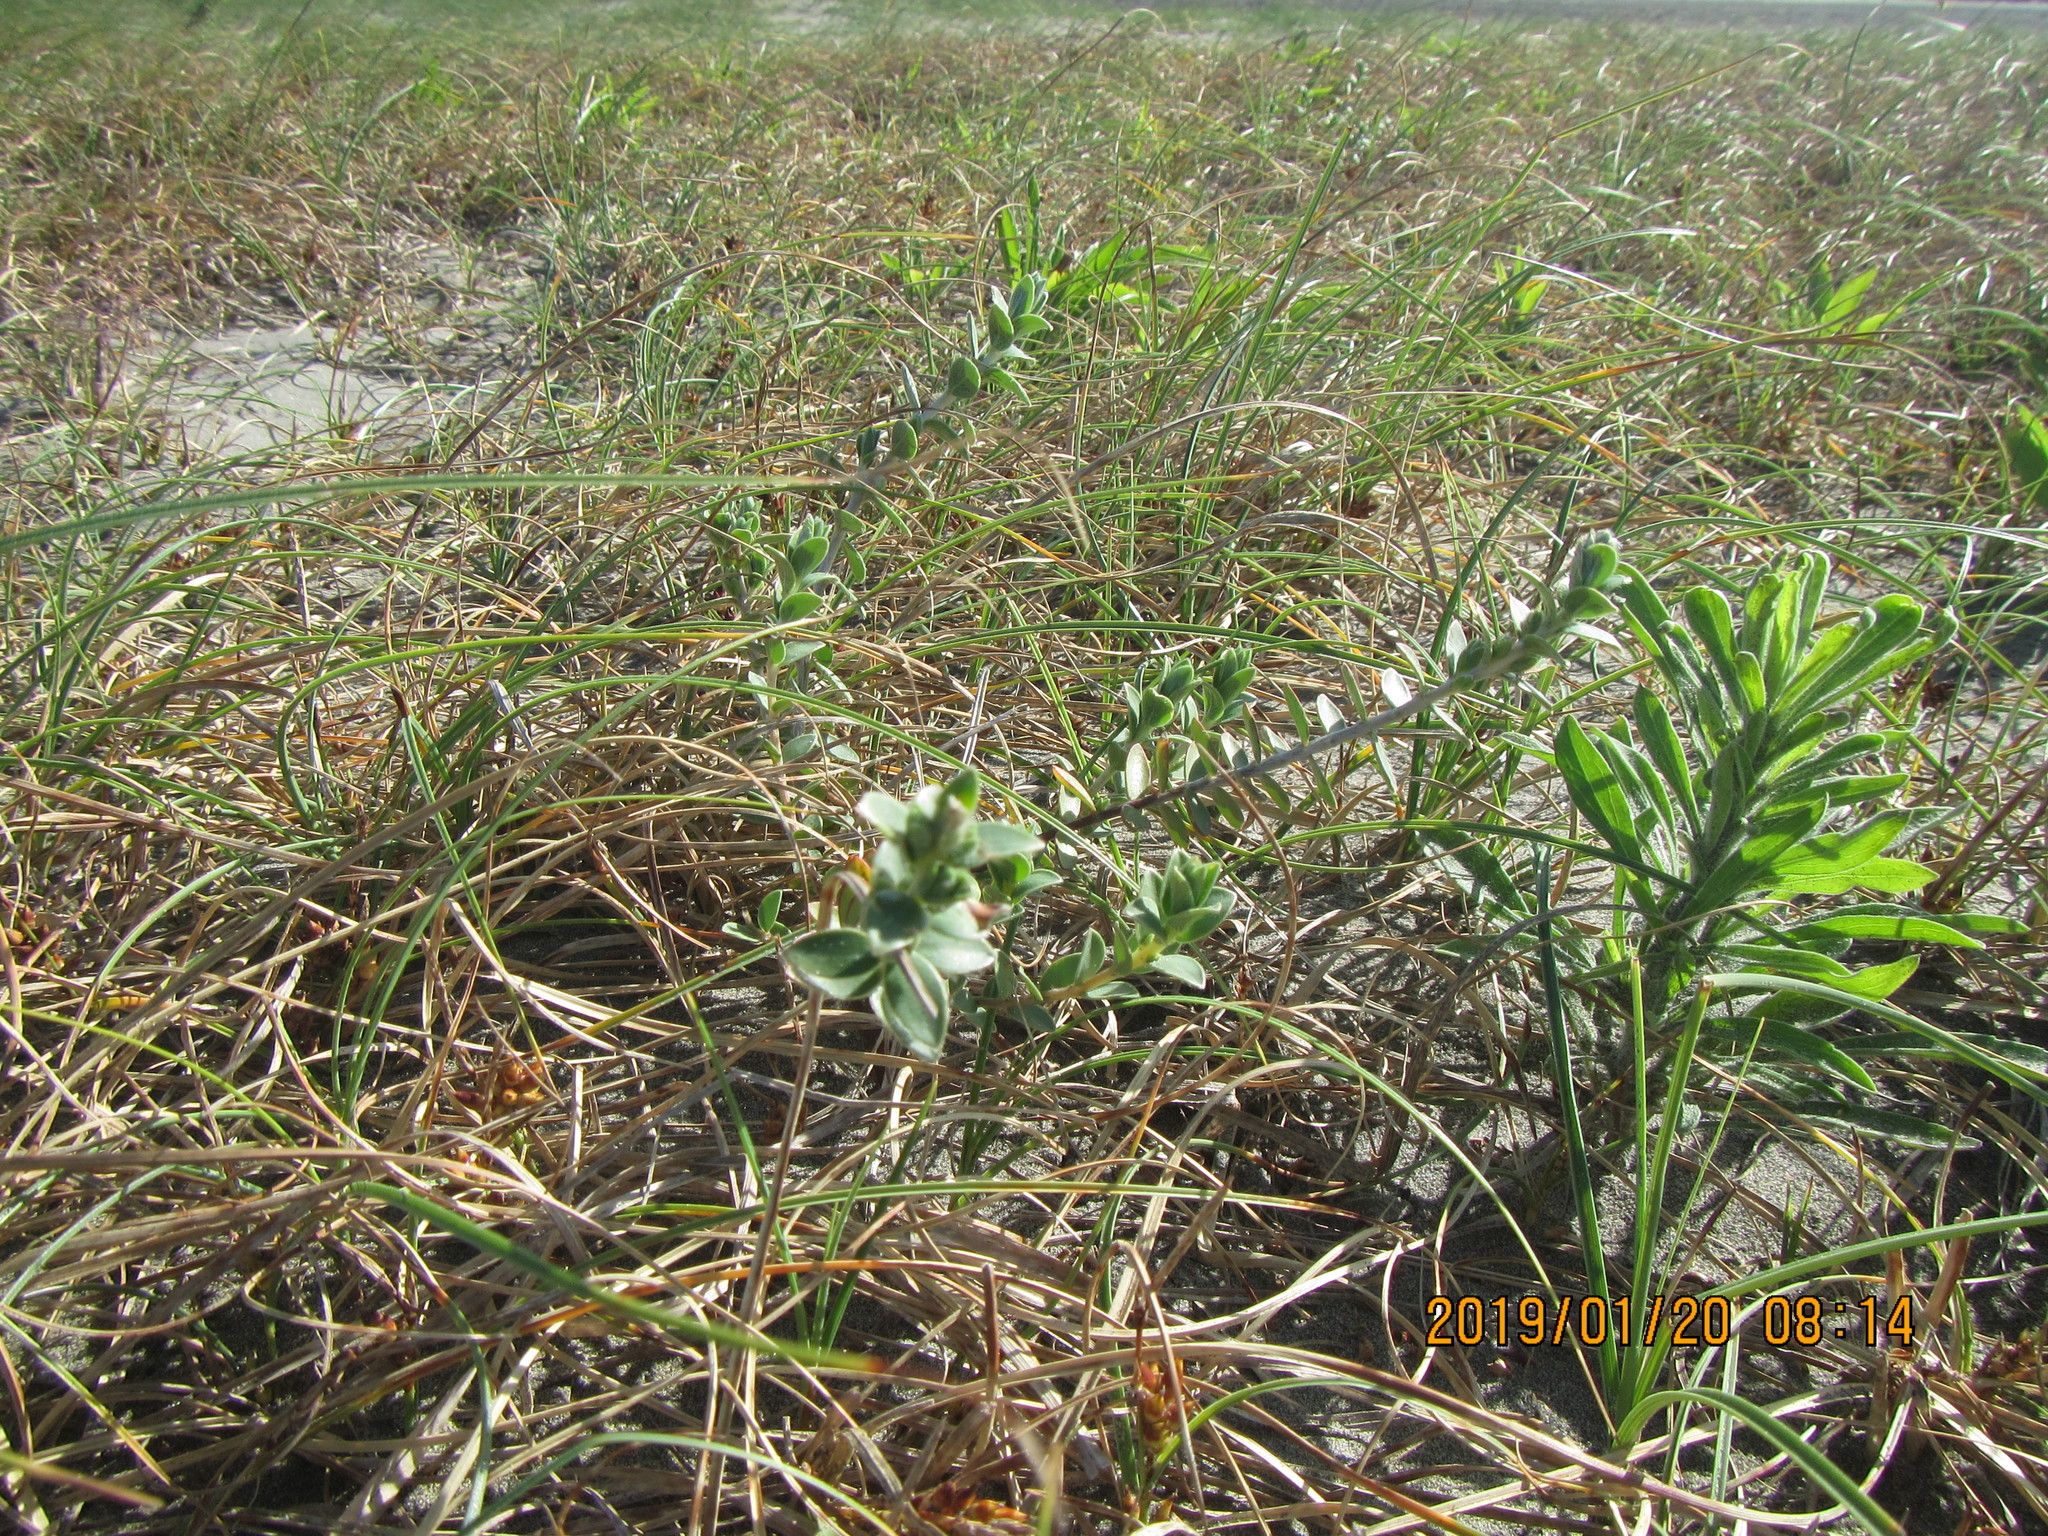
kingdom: Plantae
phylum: Tracheophyta
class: Magnoliopsida
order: Malvales
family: Thymelaeaceae
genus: Pimelea
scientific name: Pimelea villosa
